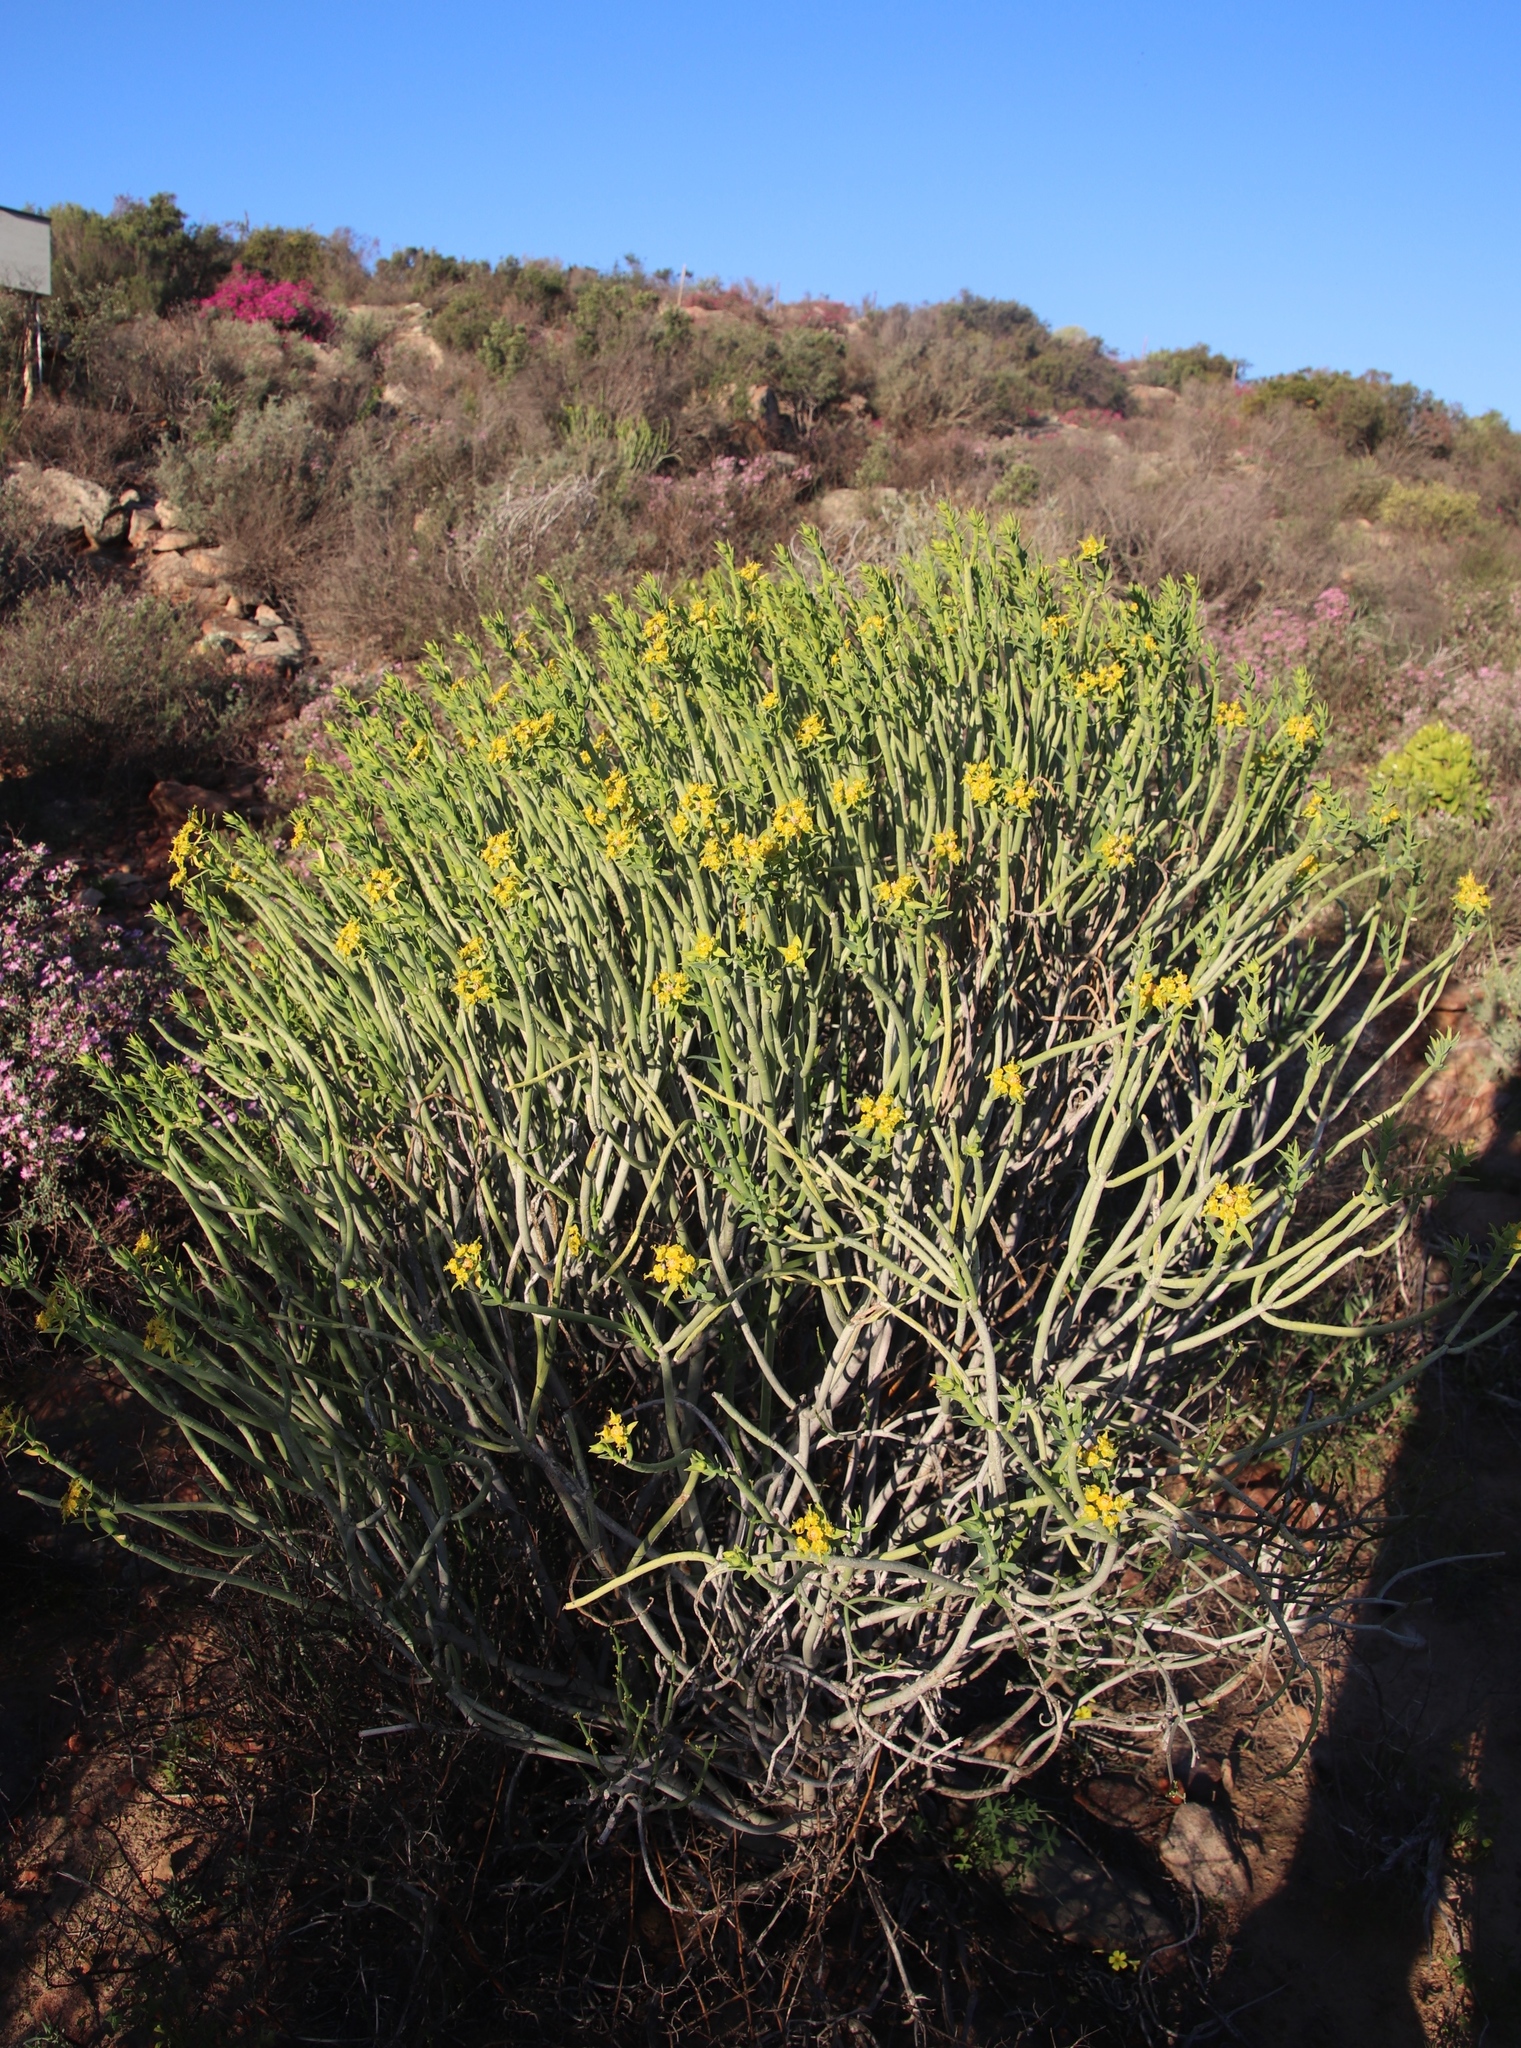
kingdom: Plantae
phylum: Tracheophyta
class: Magnoliopsida
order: Malpighiales
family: Euphorbiaceae
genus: Euphorbia
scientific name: Euphorbia mauritanica
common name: Jackal's-food
